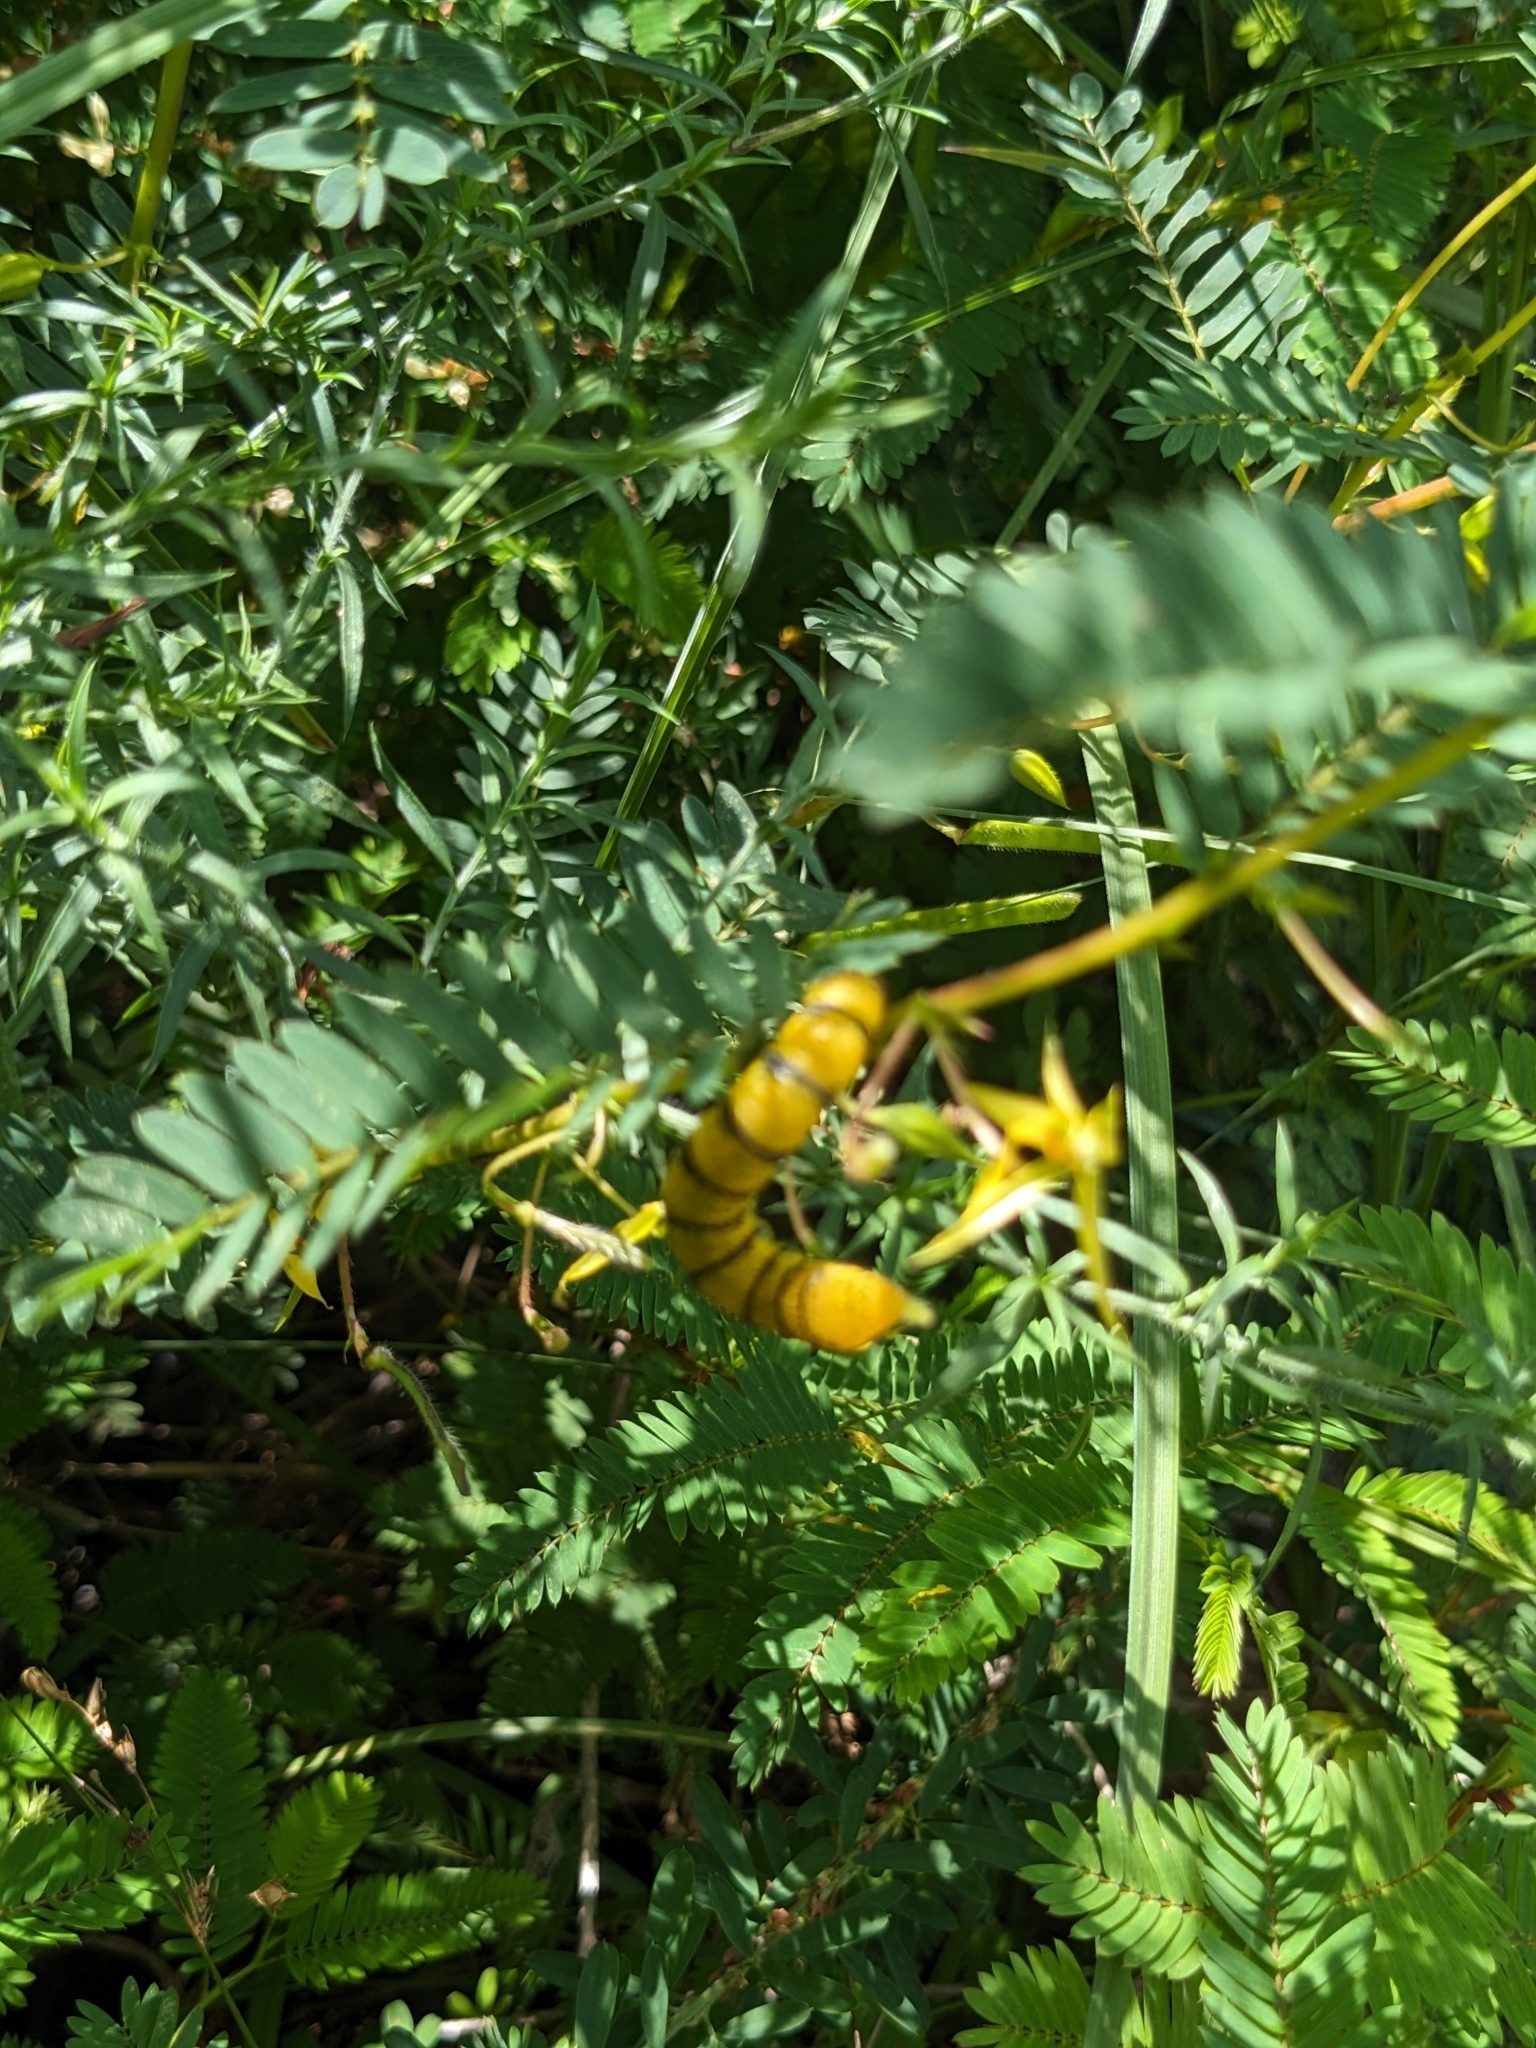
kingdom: Animalia
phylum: Arthropoda
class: Insecta
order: Lepidoptera
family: Pieridae
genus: Phoebis
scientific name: Phoebis sennae
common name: Cloudless sulphur
